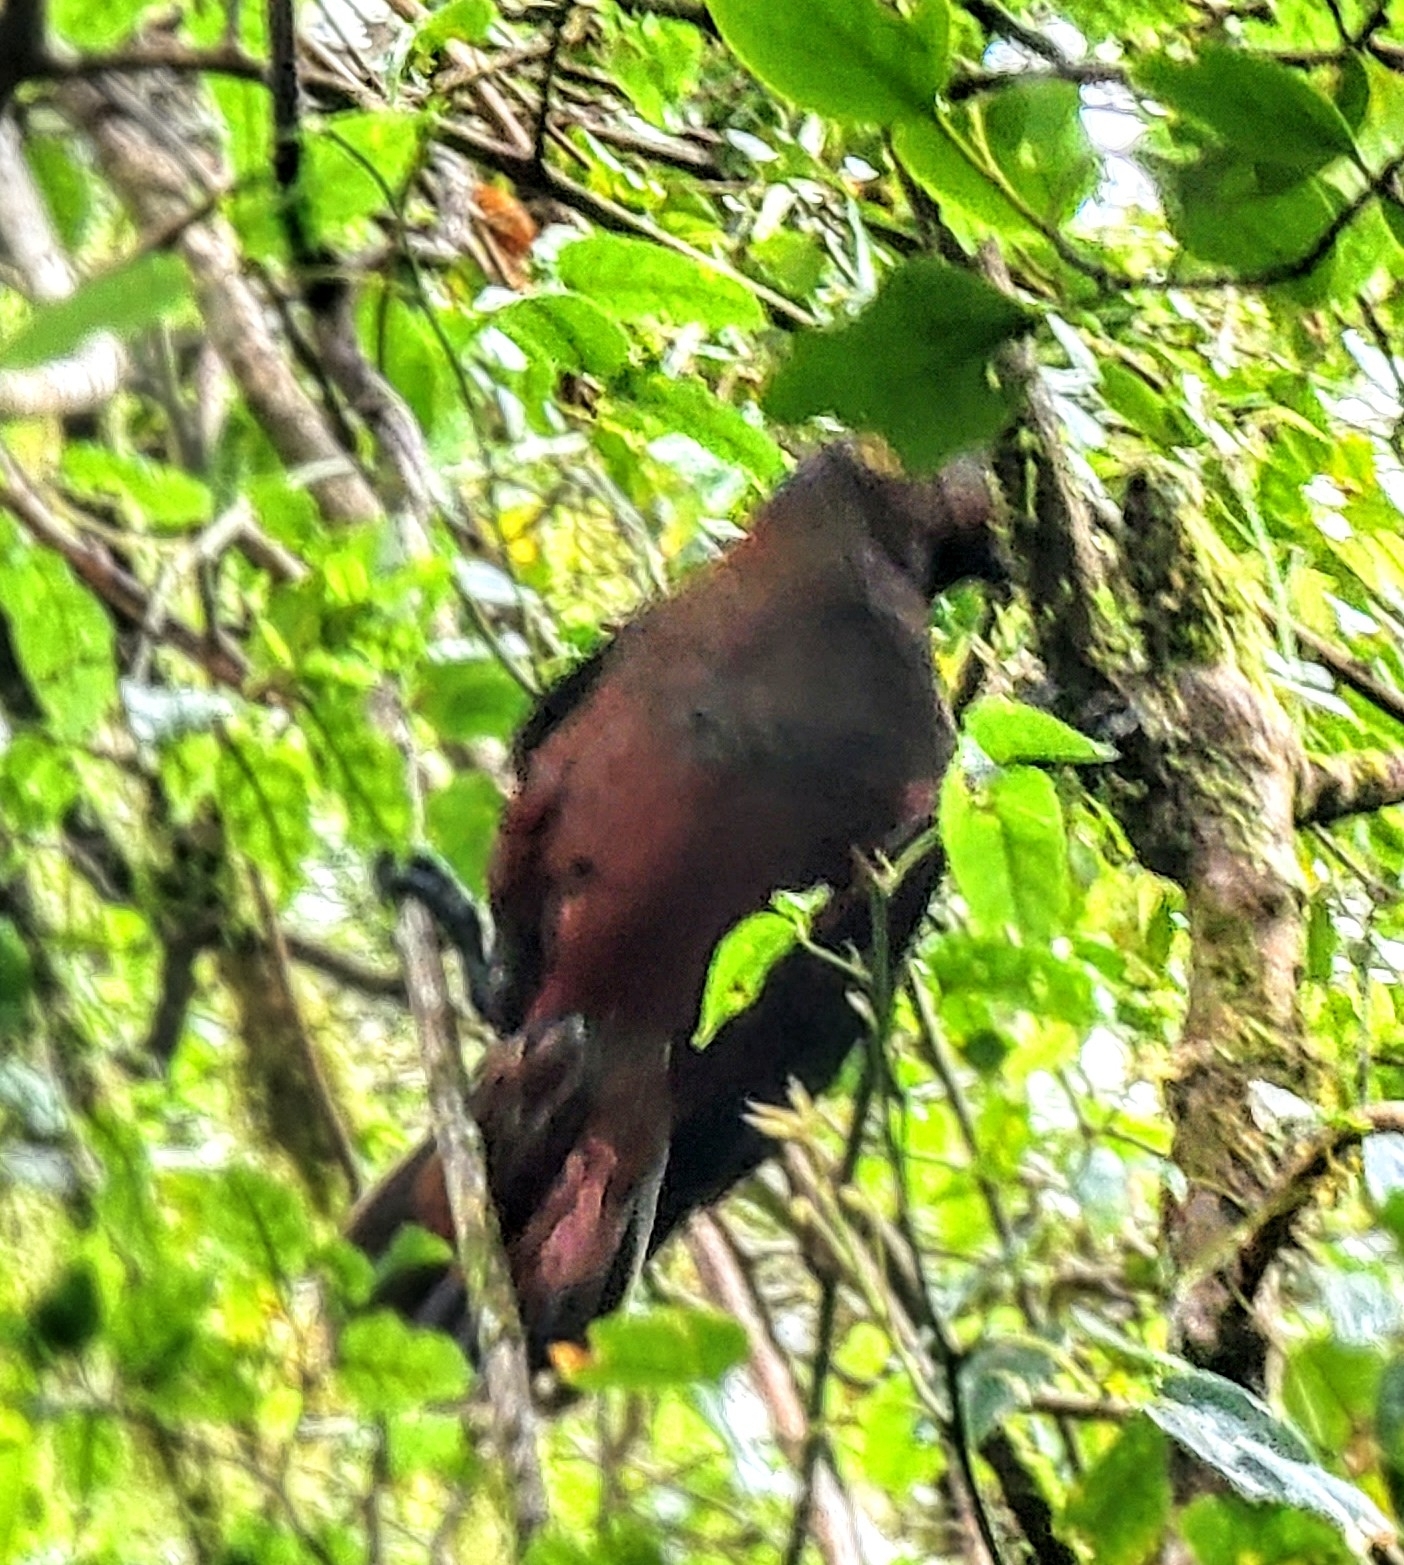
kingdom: Animalia
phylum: Chordata
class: Aves
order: Psittaciformes
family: Psittacidae
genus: Nestor
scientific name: Nestor meridionalis
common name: New zealand kaka
